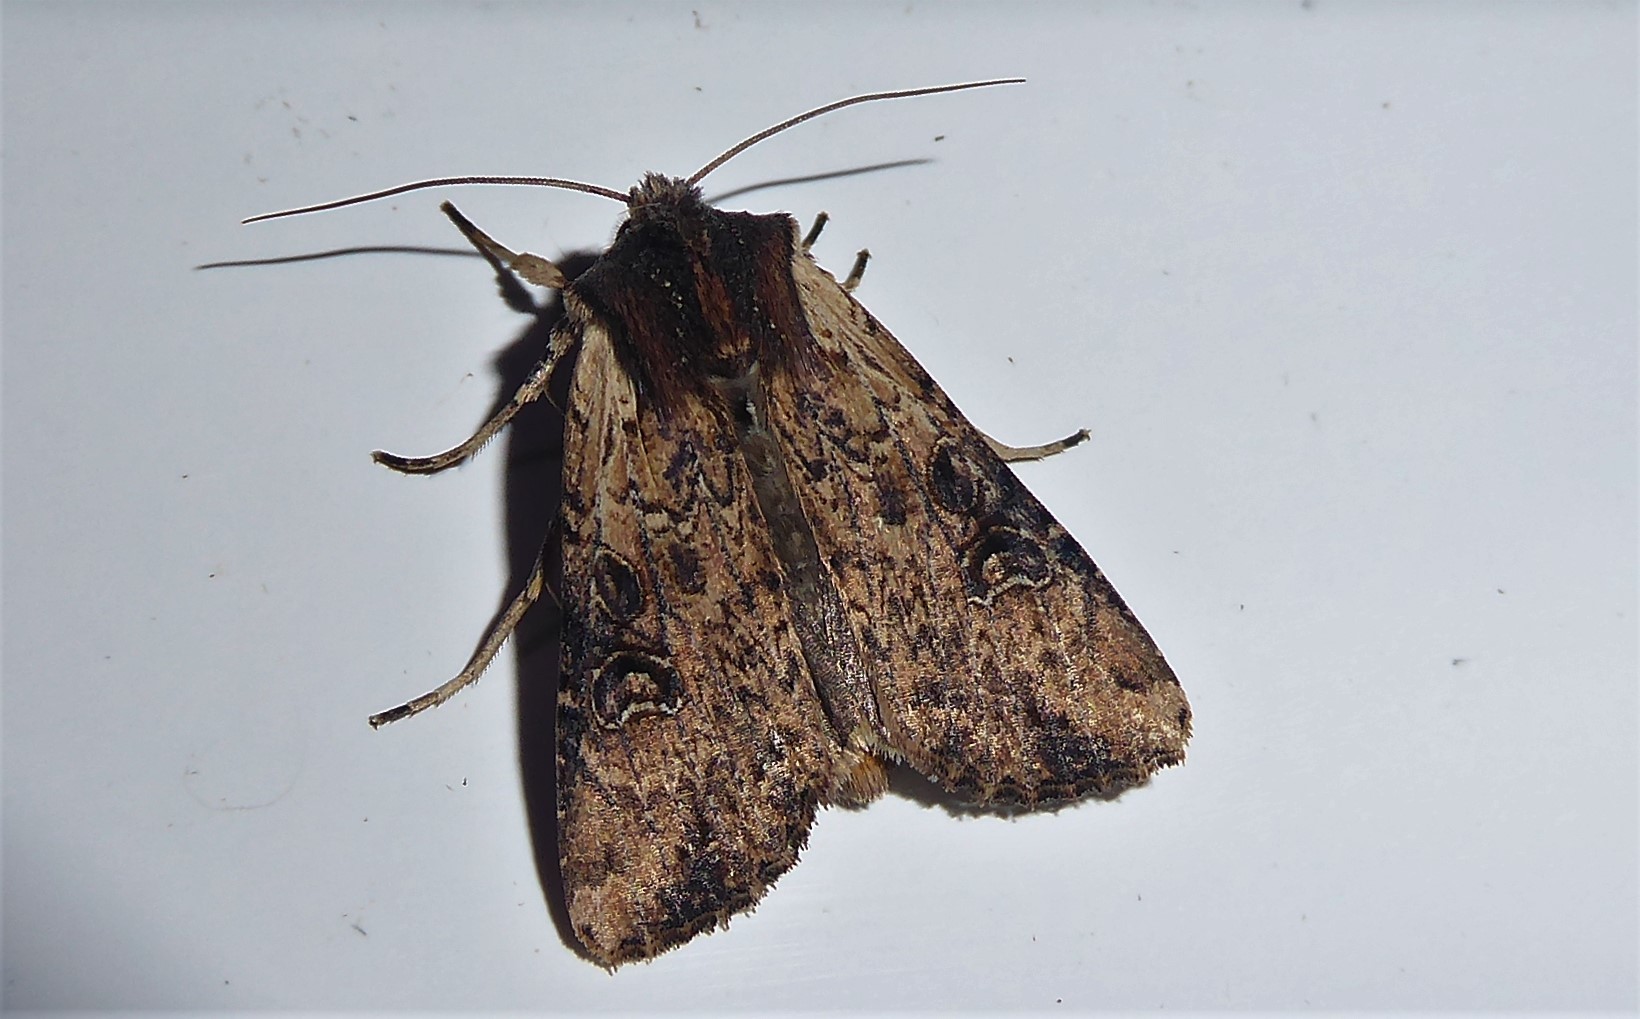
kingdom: Animalia
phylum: Arthropoda
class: Insecta
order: Lepidoptera
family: Noctuidae
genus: Ichneutica
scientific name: Ichneutica omoplaca
